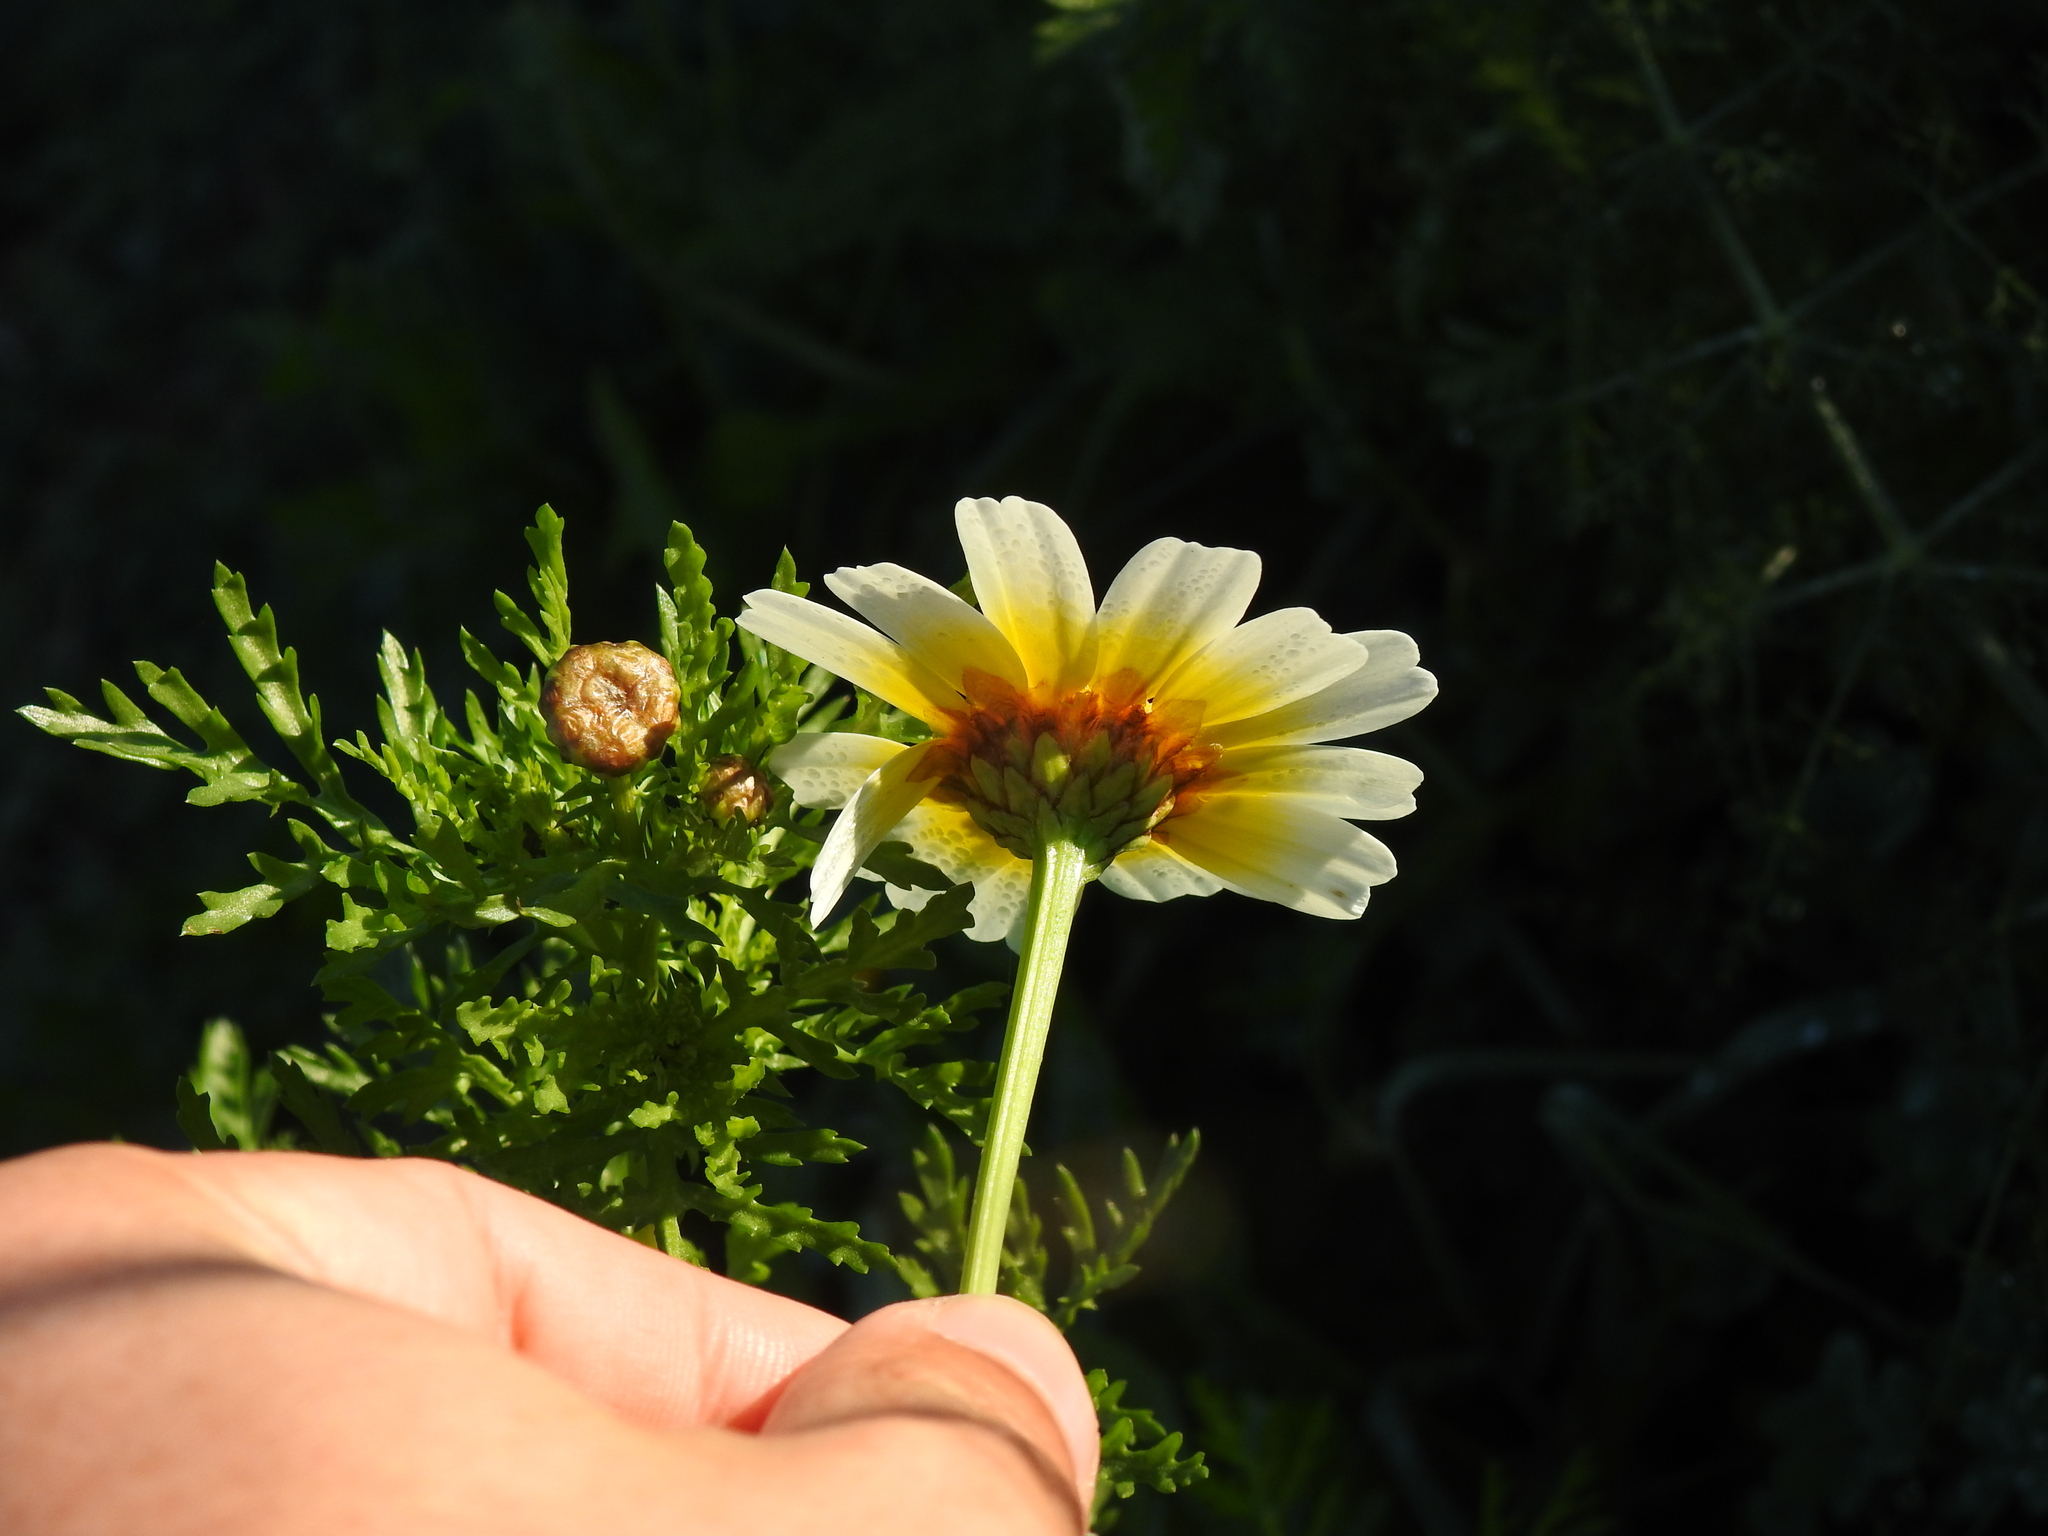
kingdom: Plantae
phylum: Tracheophyta
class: Magnoliopsida
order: Asterales
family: Asteraceae
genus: Glebionis
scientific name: Glebionis coronaria
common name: Crowndaisy
